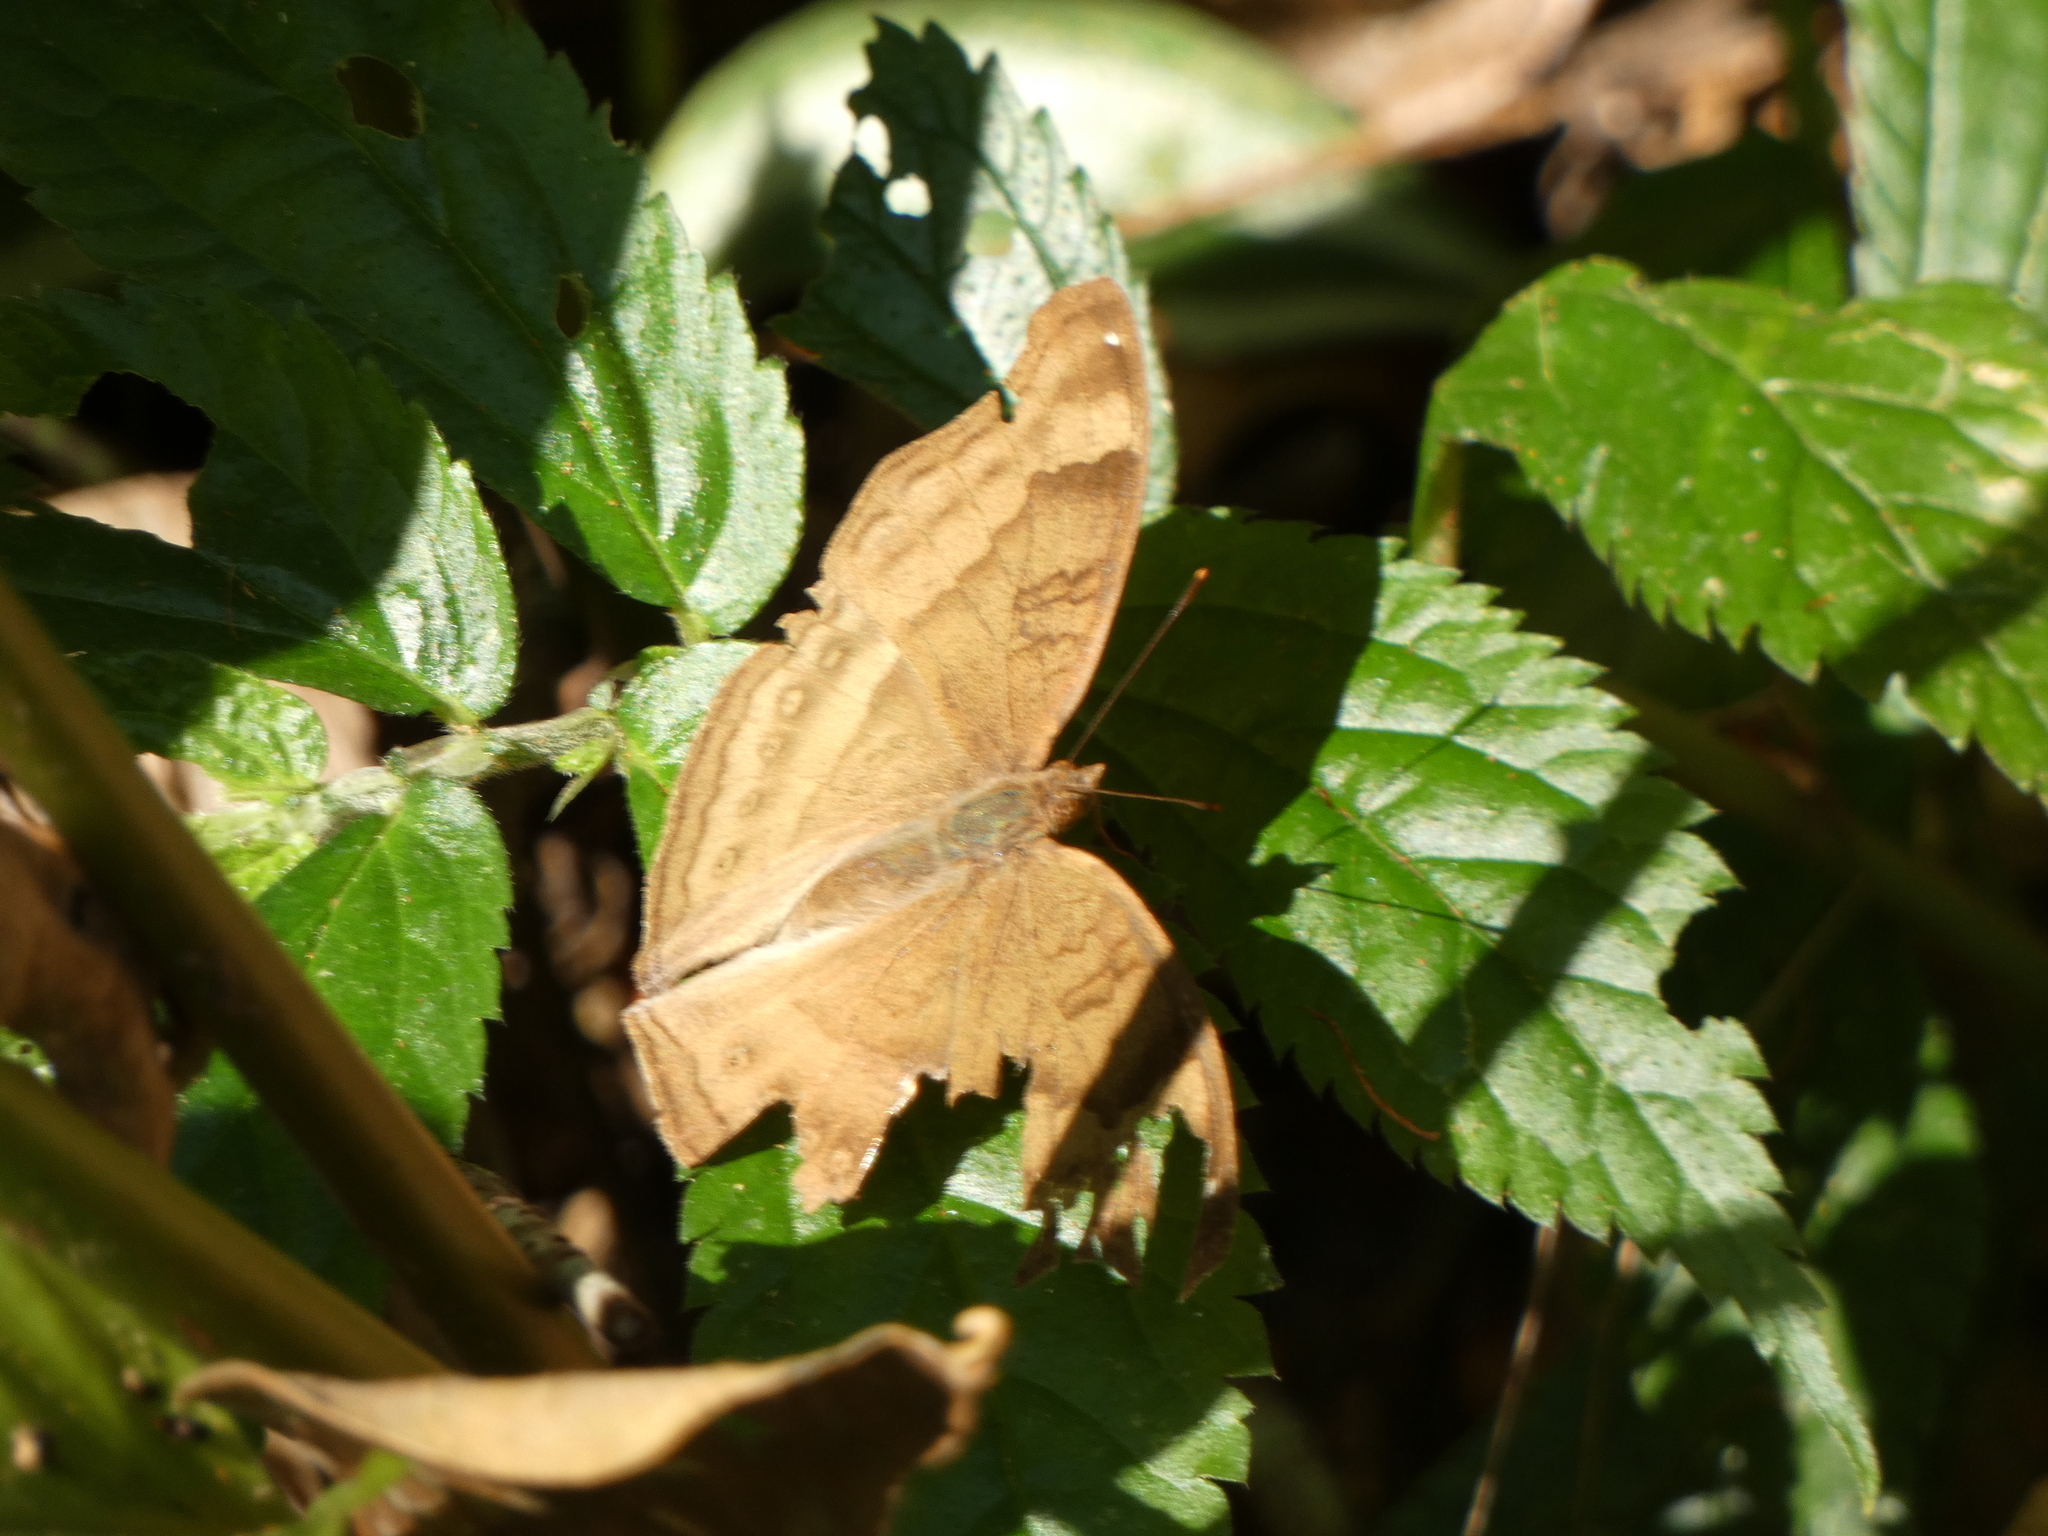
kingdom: Animalia
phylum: Arthropoda
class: Insecta
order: Lepidoptera
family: Nymphalidae
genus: Junonia
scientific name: Junonia iphita
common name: Chocolate pansy
